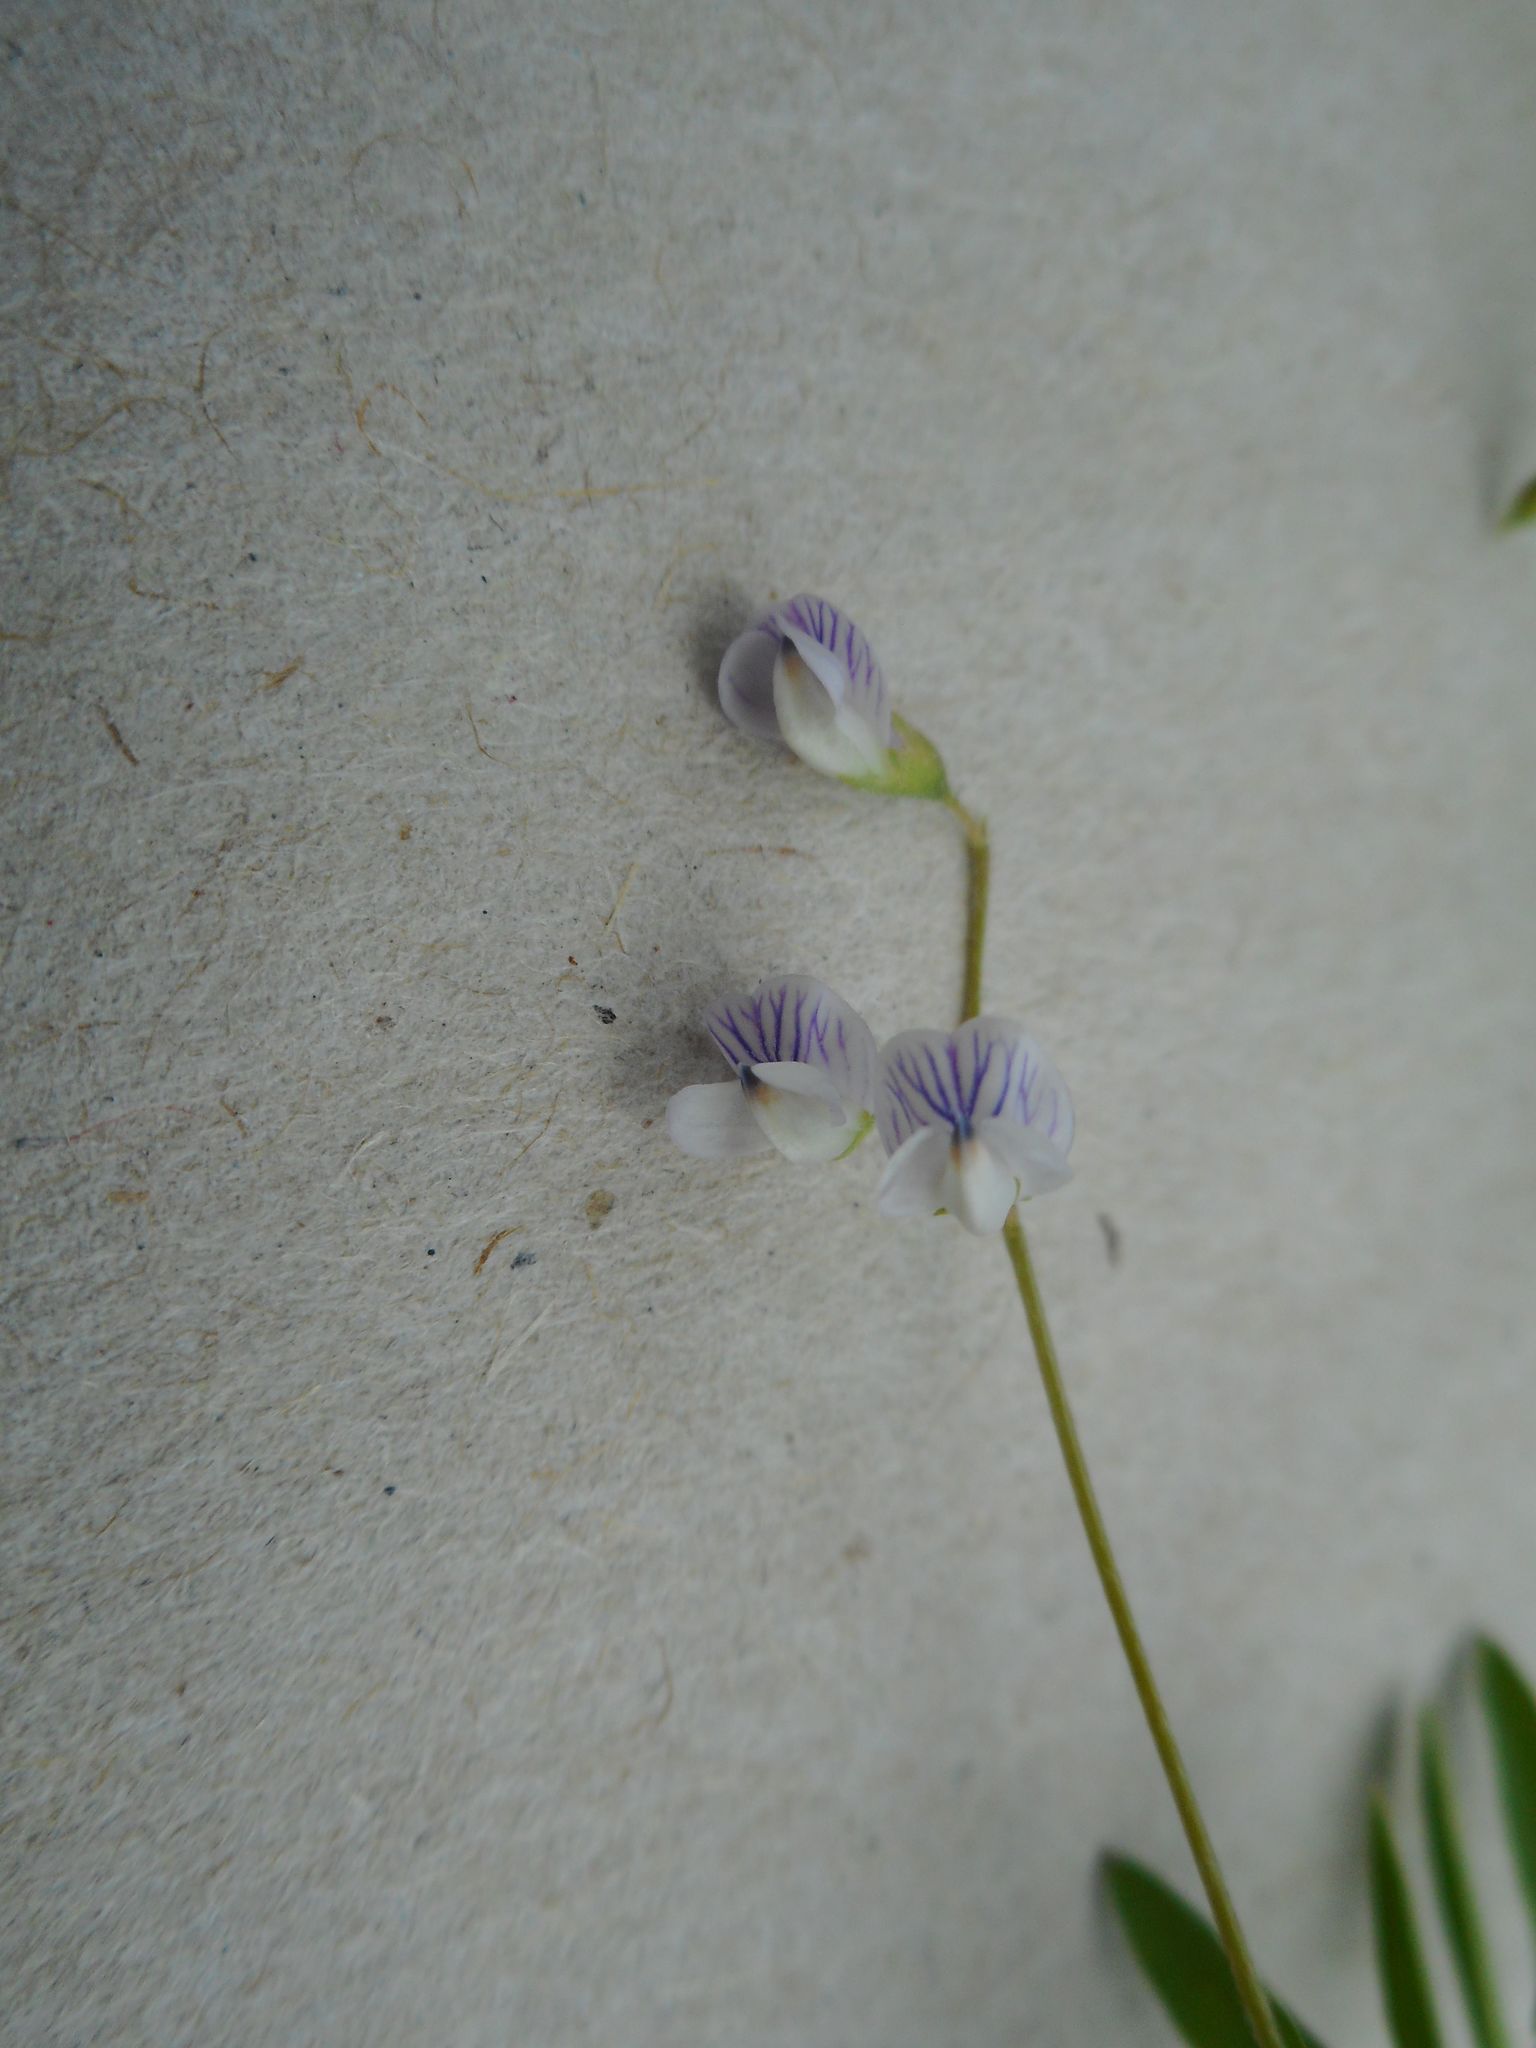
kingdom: Plantae
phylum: Tracheophyta
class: Magnoliopsida
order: Fabales
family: Fabaceae
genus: Vicia
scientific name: Vicia tetrasperma
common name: Smooth tare
